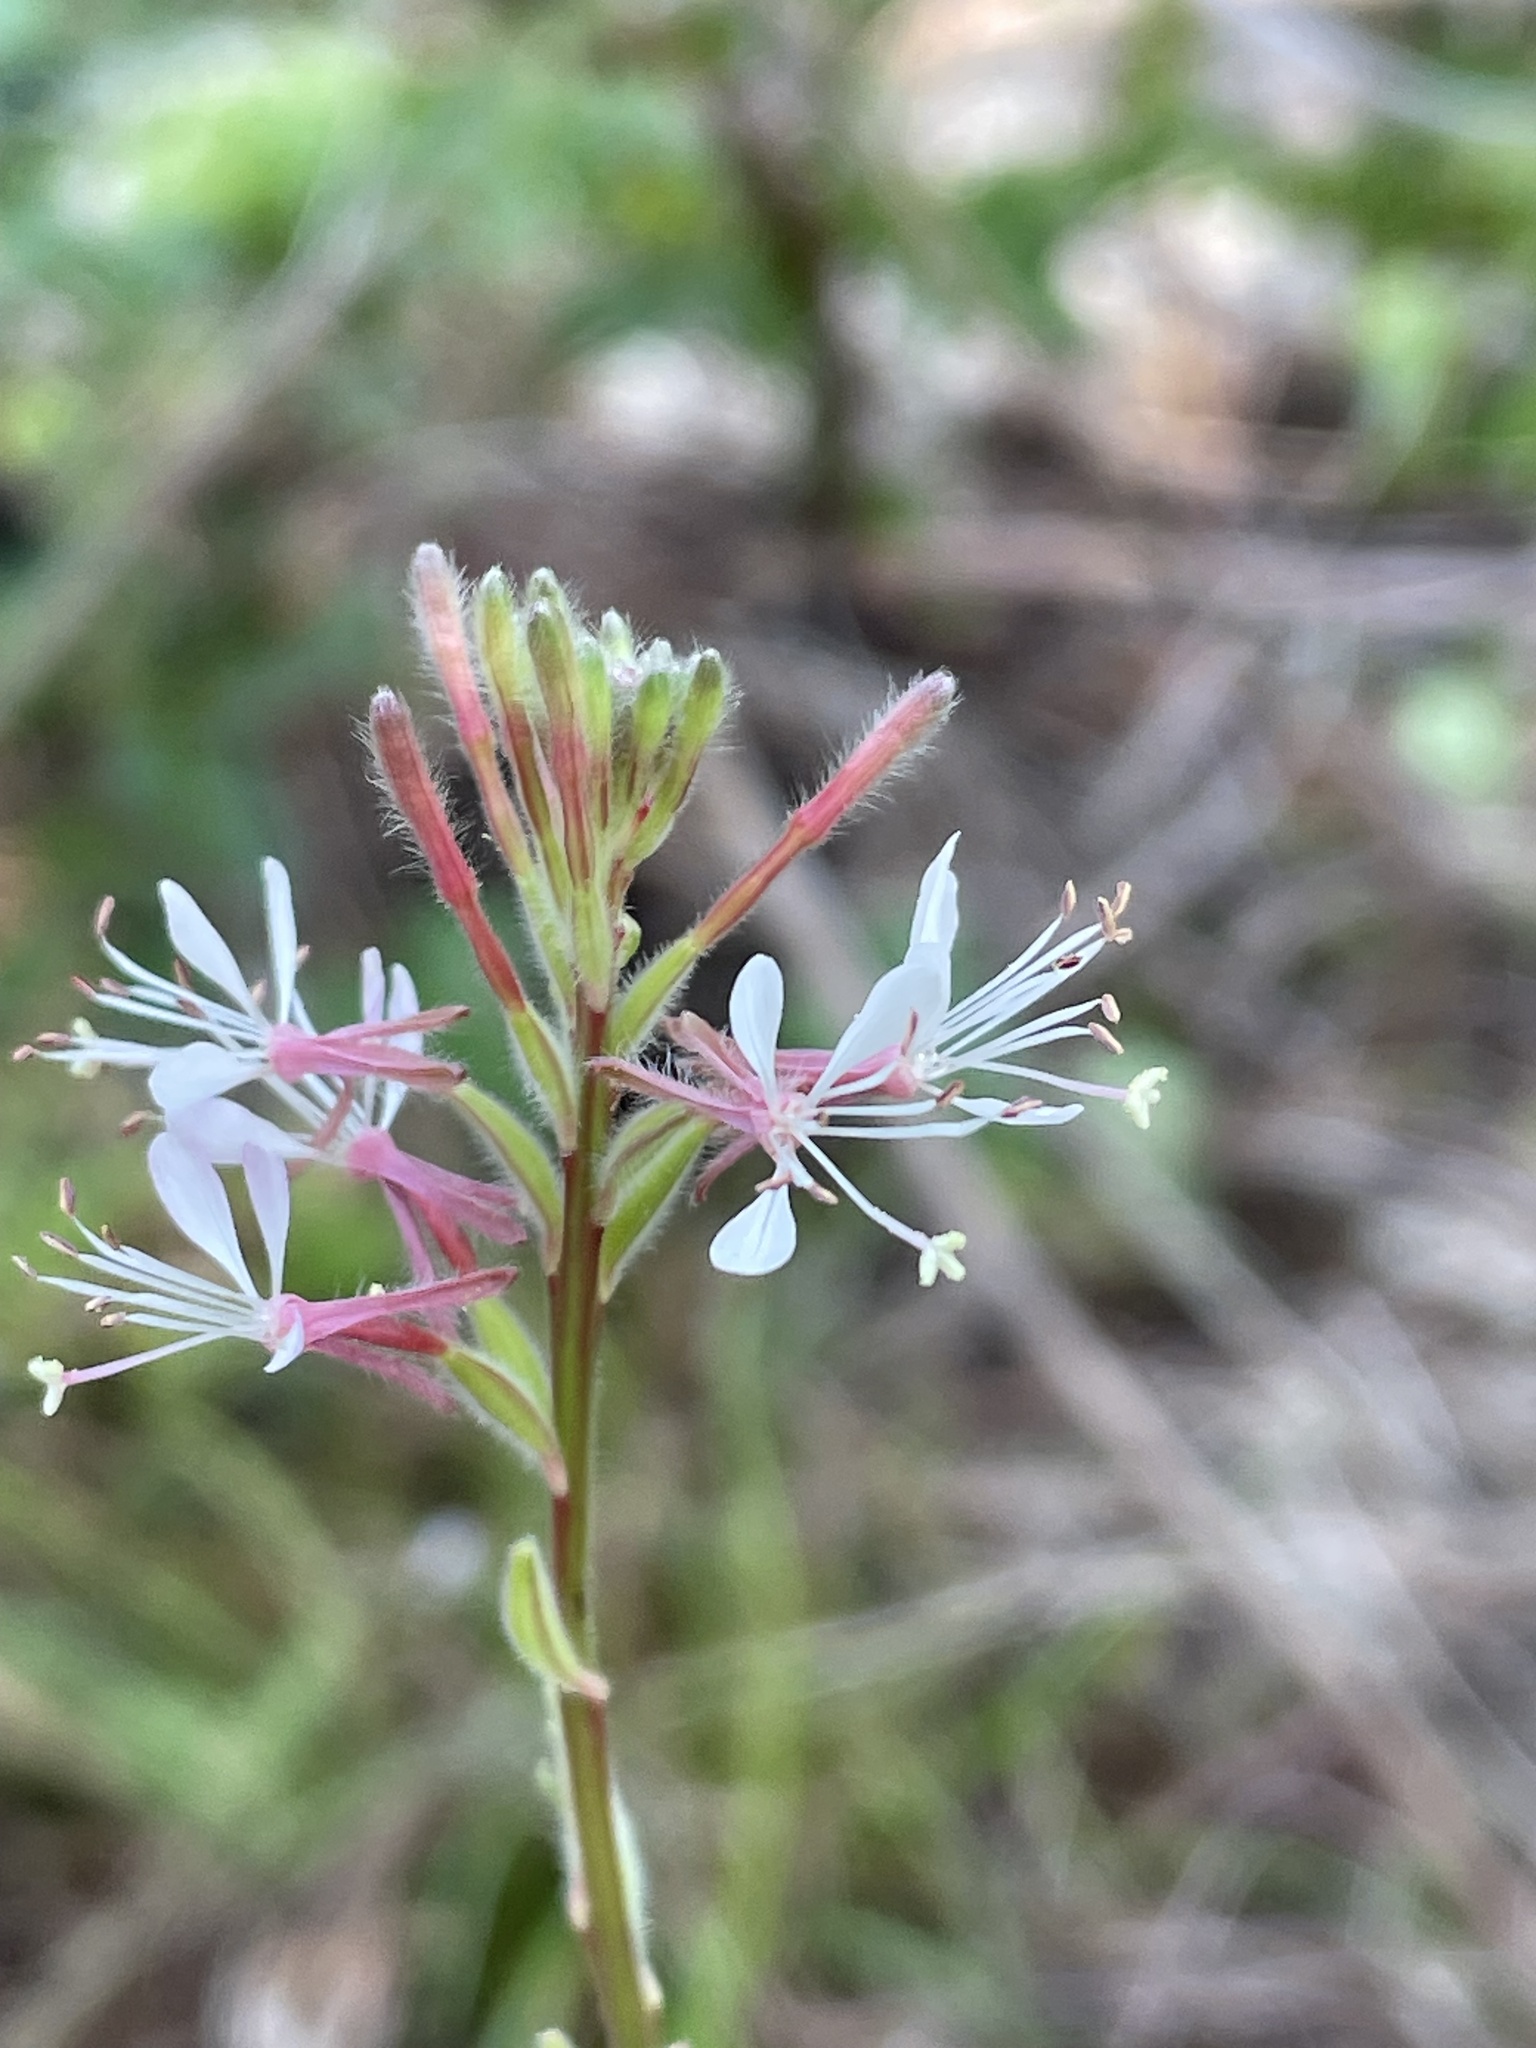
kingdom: Plantae
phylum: Tracheophyta
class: Magnoliopsida
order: Myrtales
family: Onagraceae
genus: Oenothera
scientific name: Oenothera simulans
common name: Southern beeblossom
